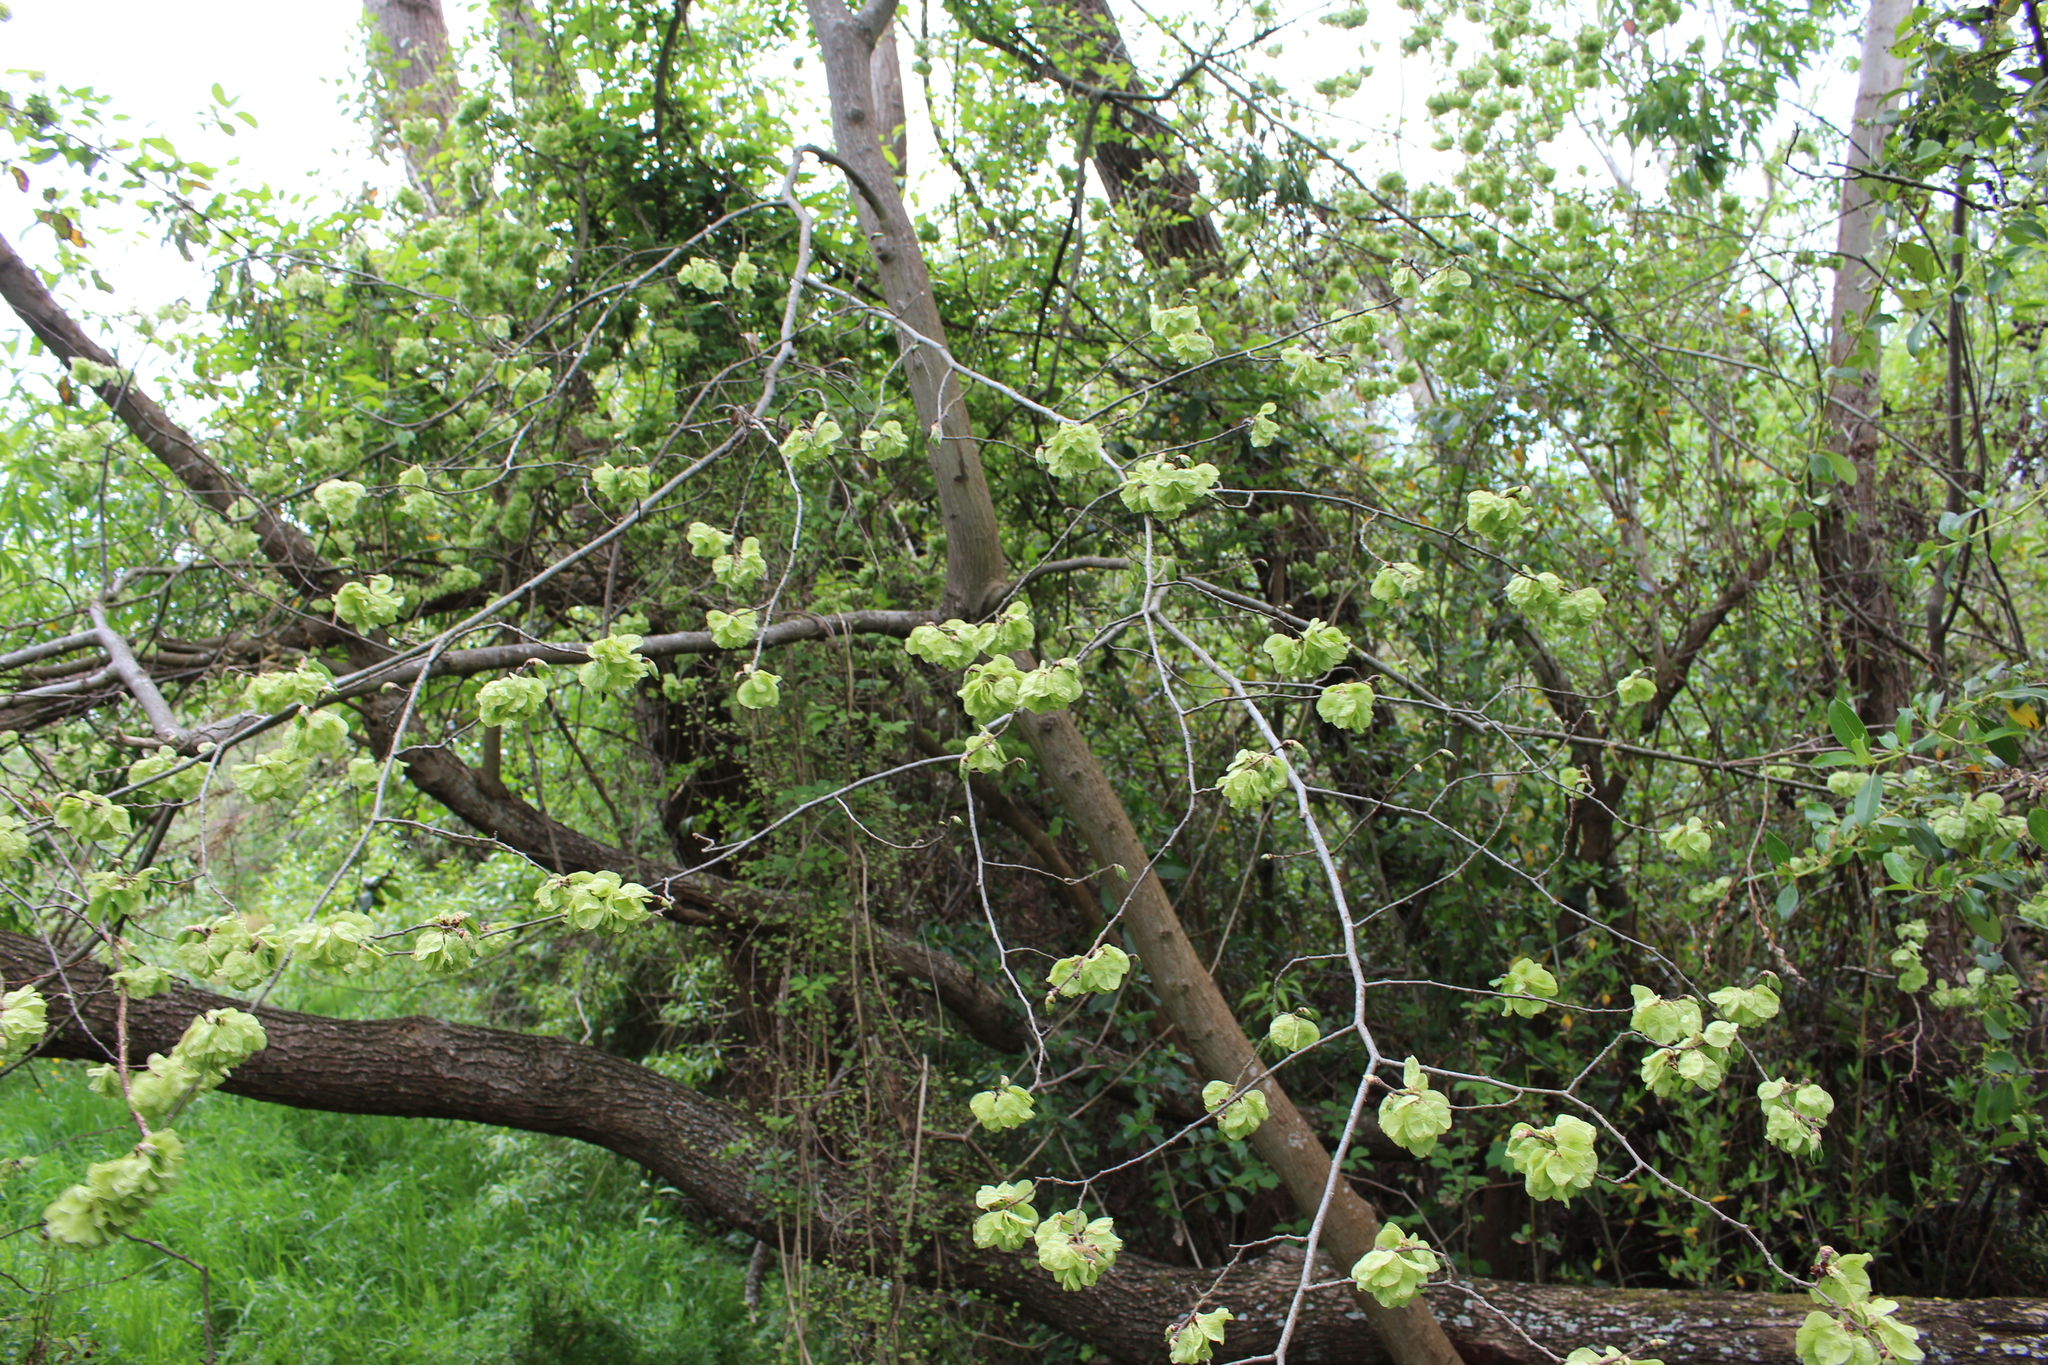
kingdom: Plantae
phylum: Tracheophyta
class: Magnoliopsida
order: Rosales
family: Ulmaceae
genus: Ulmus
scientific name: Ulmus glabra
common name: Wych elm
